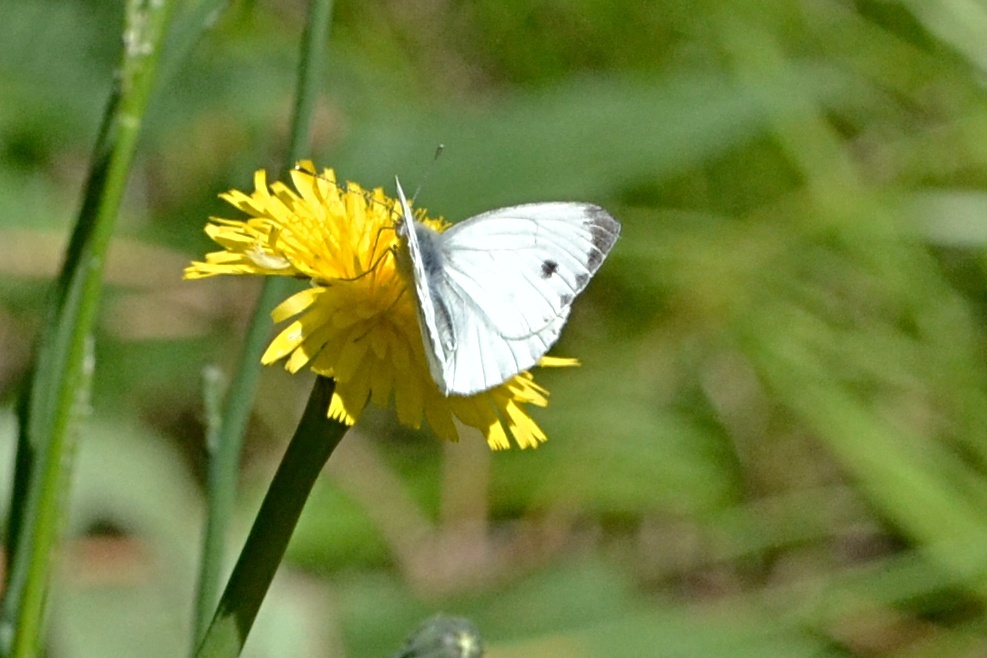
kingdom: Animalia
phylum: Arthropoda
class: Insecta
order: Lepidoptera
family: Pieridae
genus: Pieris
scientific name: Pieris napi
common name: Green-veined white
